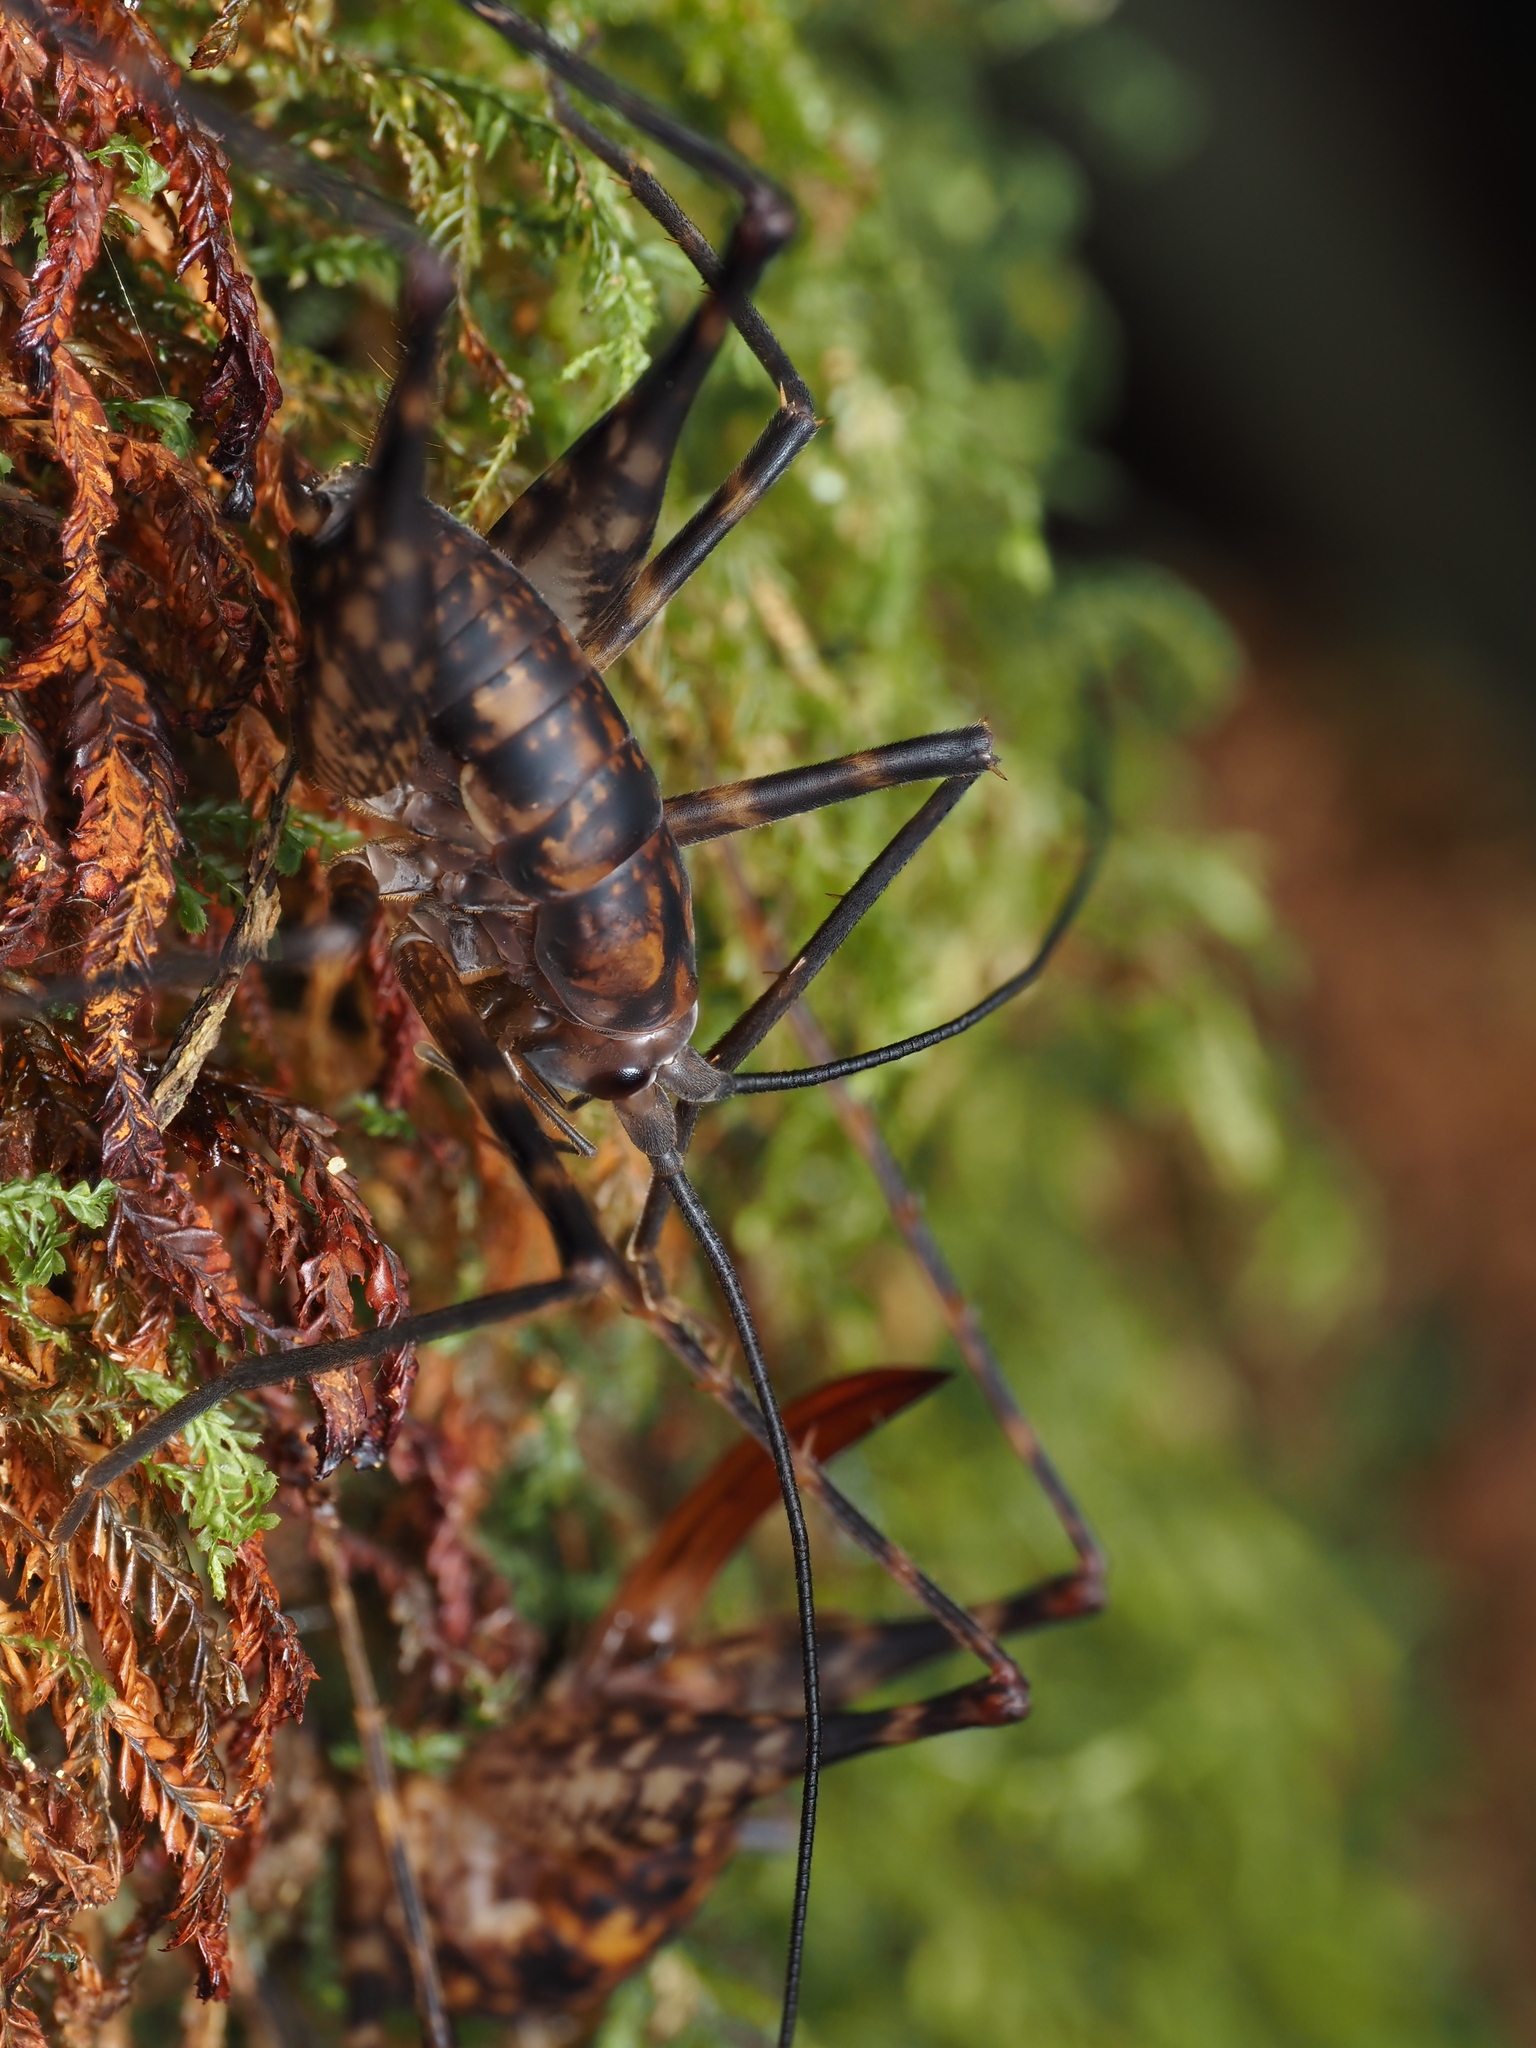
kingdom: Animalia
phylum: Arthropoda
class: Insecta
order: Orthoptera
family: Rhaphidophoridae
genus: Miotopus
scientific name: Miotopus richardsae
